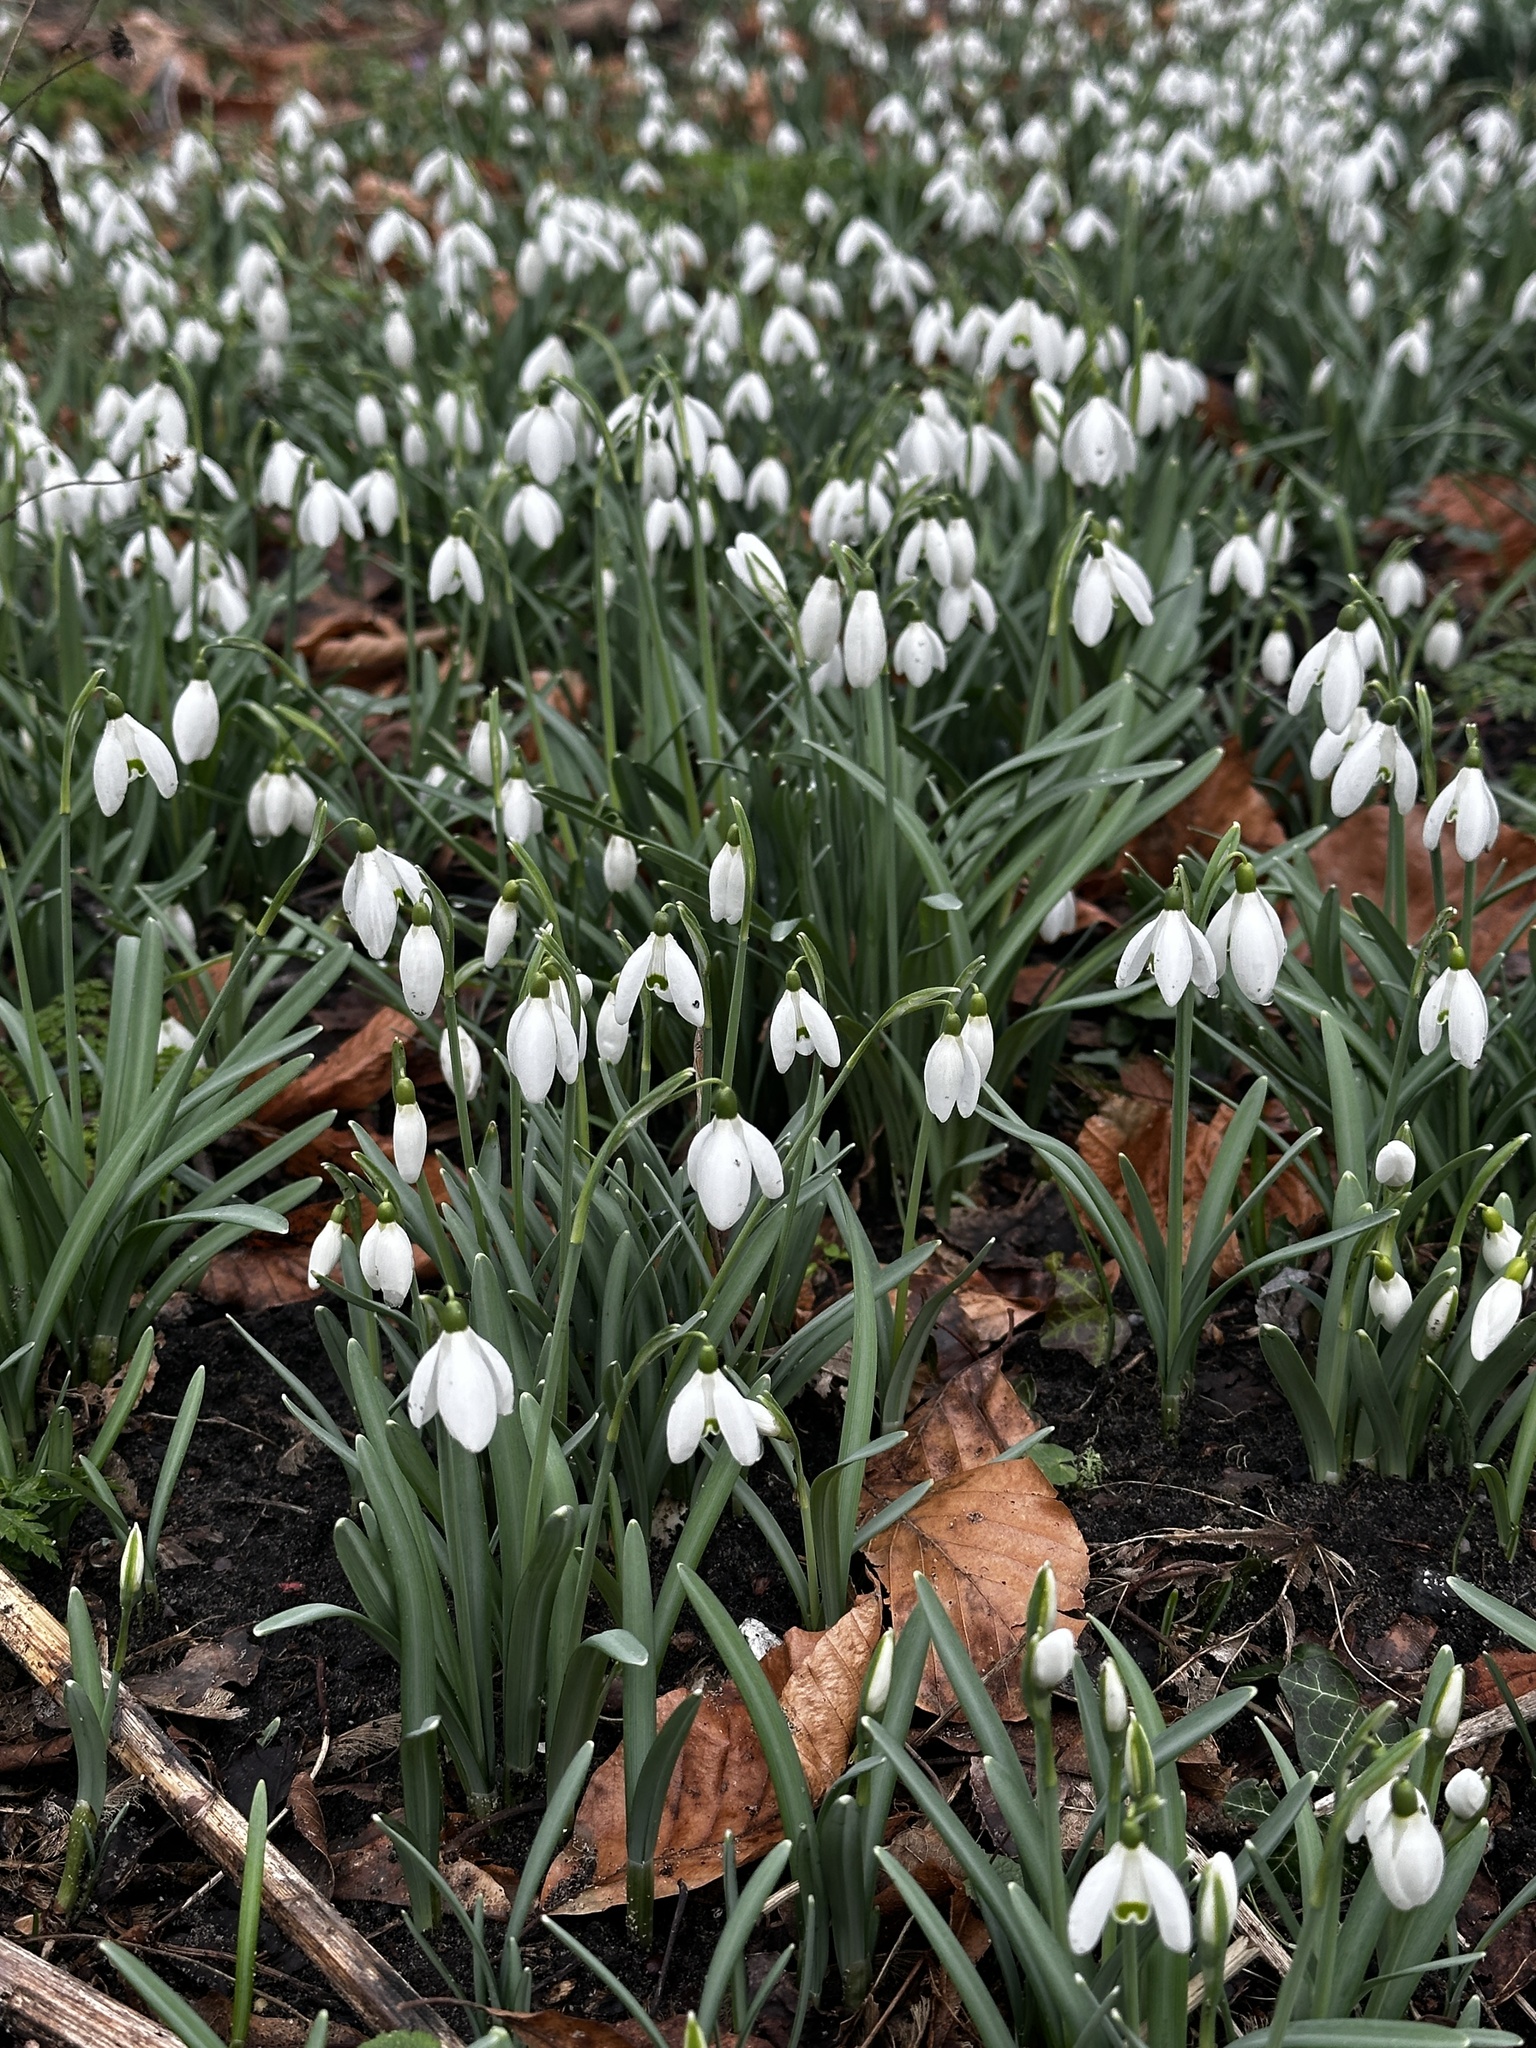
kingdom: Plantae
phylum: Tracheophyta
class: Liliopsida
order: Asparagales
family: Amaryllidaceae
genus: Galanthus
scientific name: Galanthus nivalis
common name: Snowdrop
